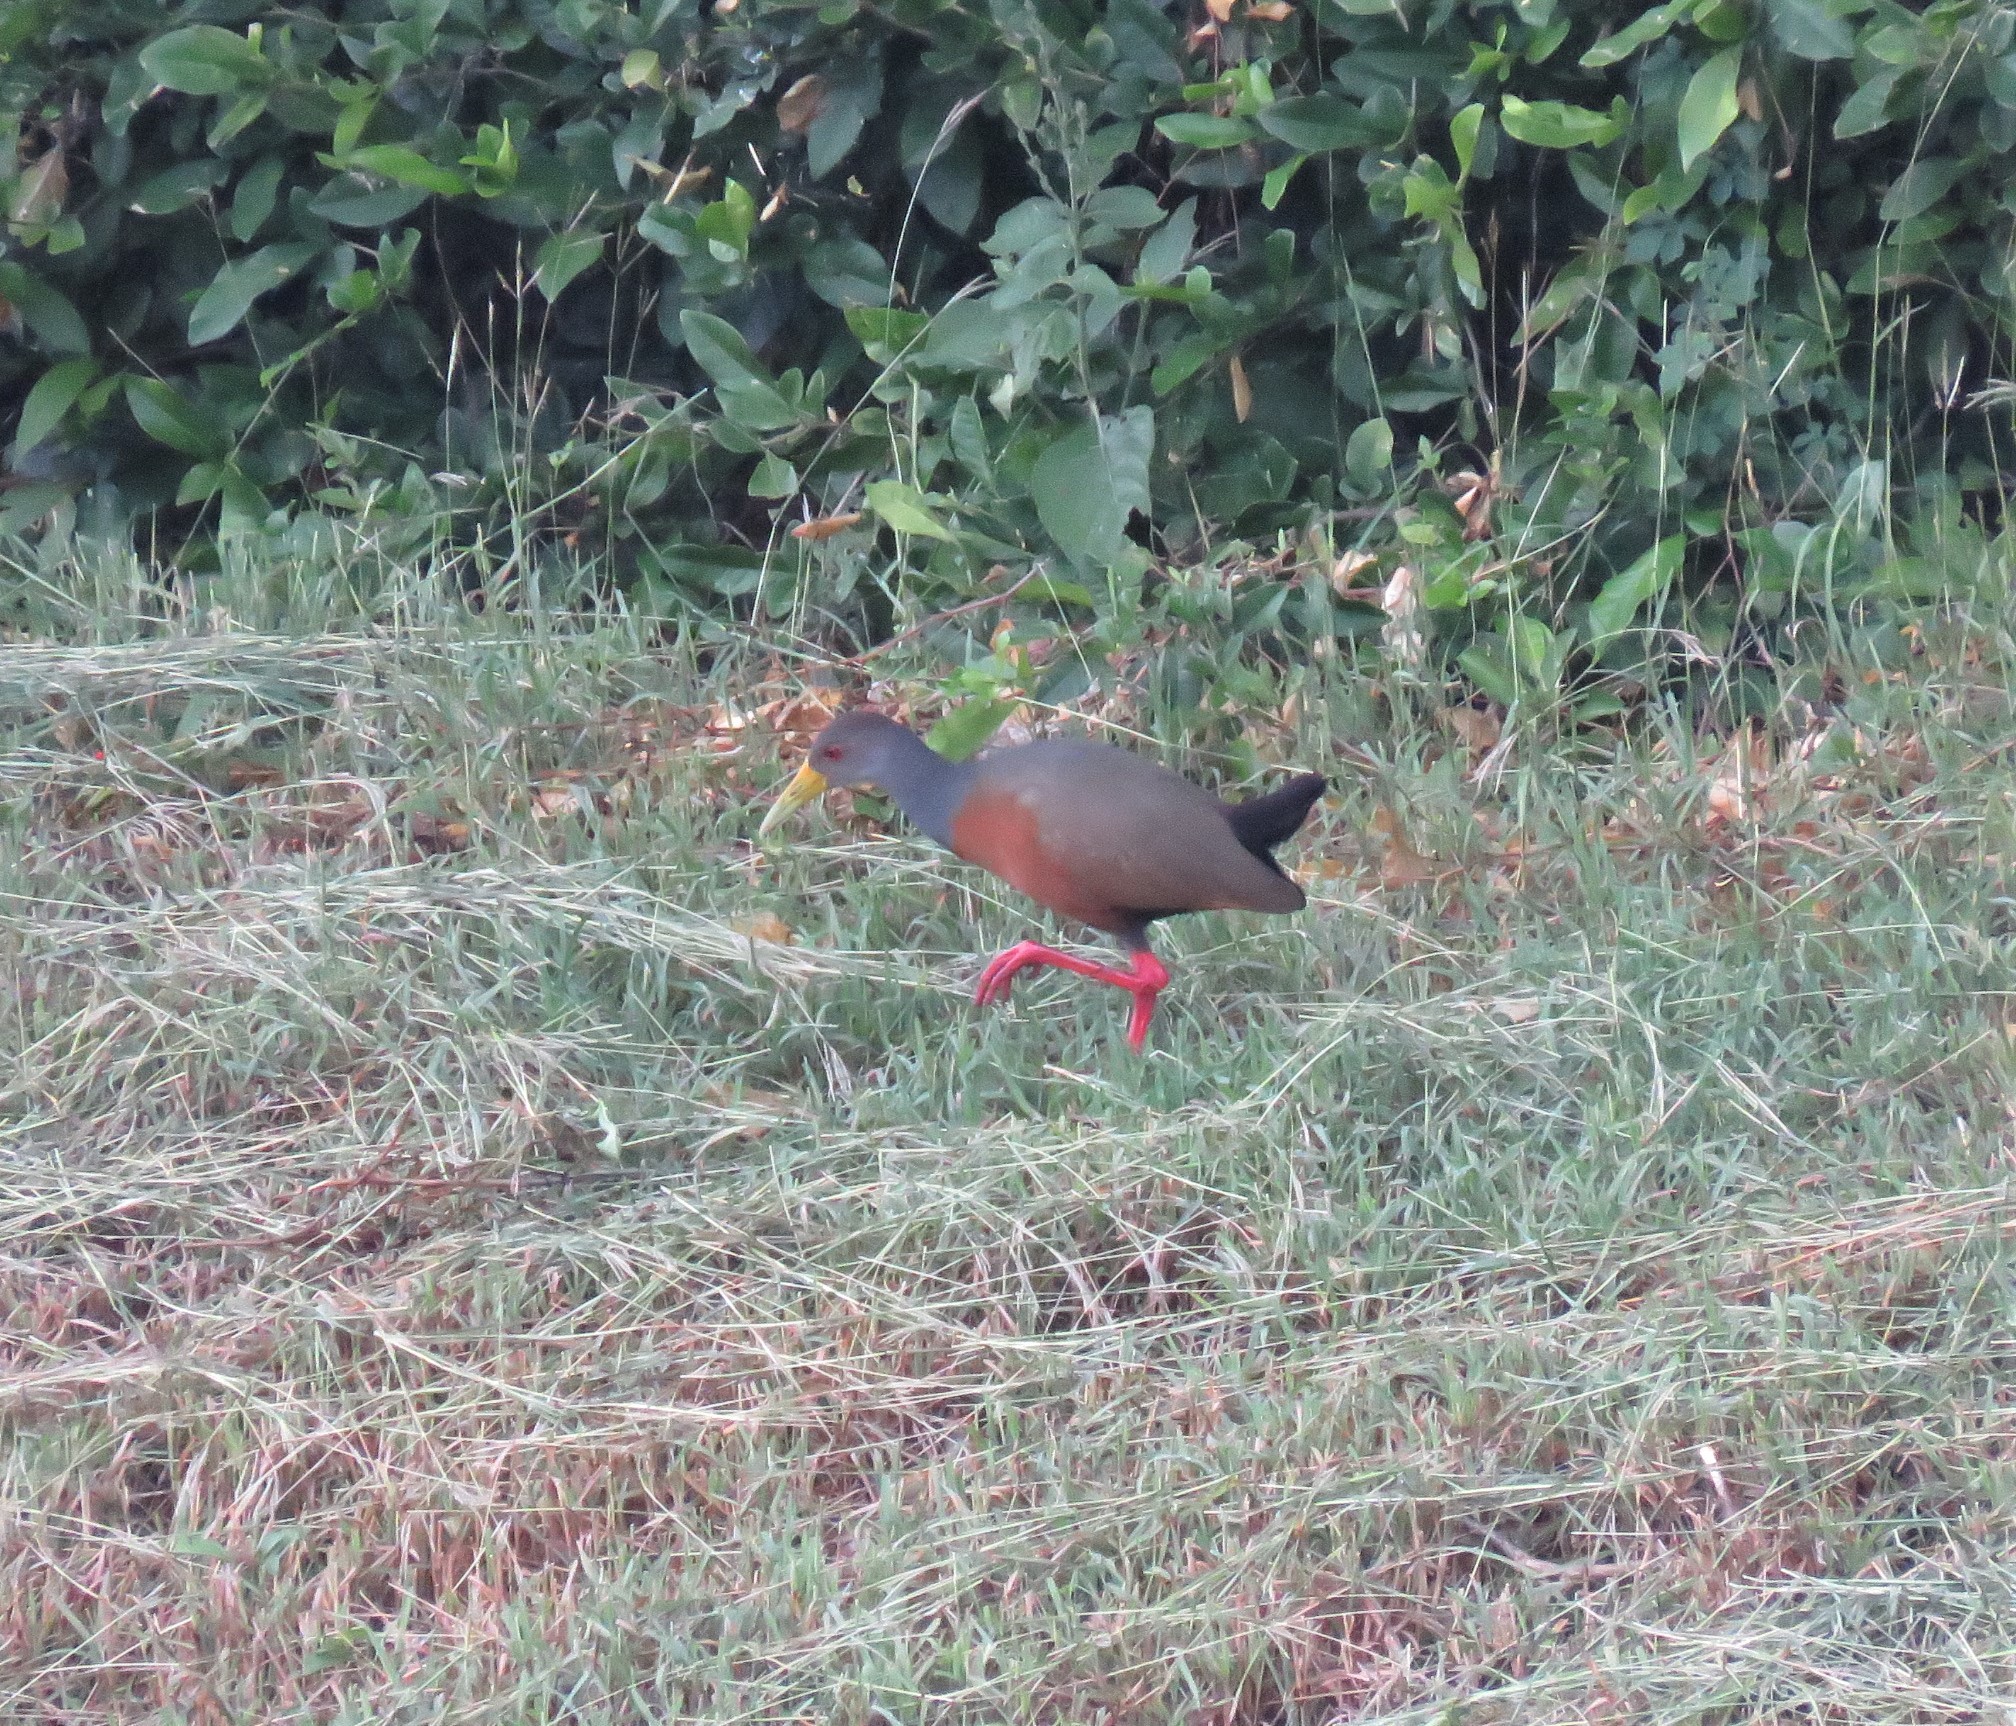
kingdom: Animalia
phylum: Chordata
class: Aves
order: Gruiformes
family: Rallidae
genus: Aramides
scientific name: Aramides cajanea
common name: Gray-necked wood-rail
